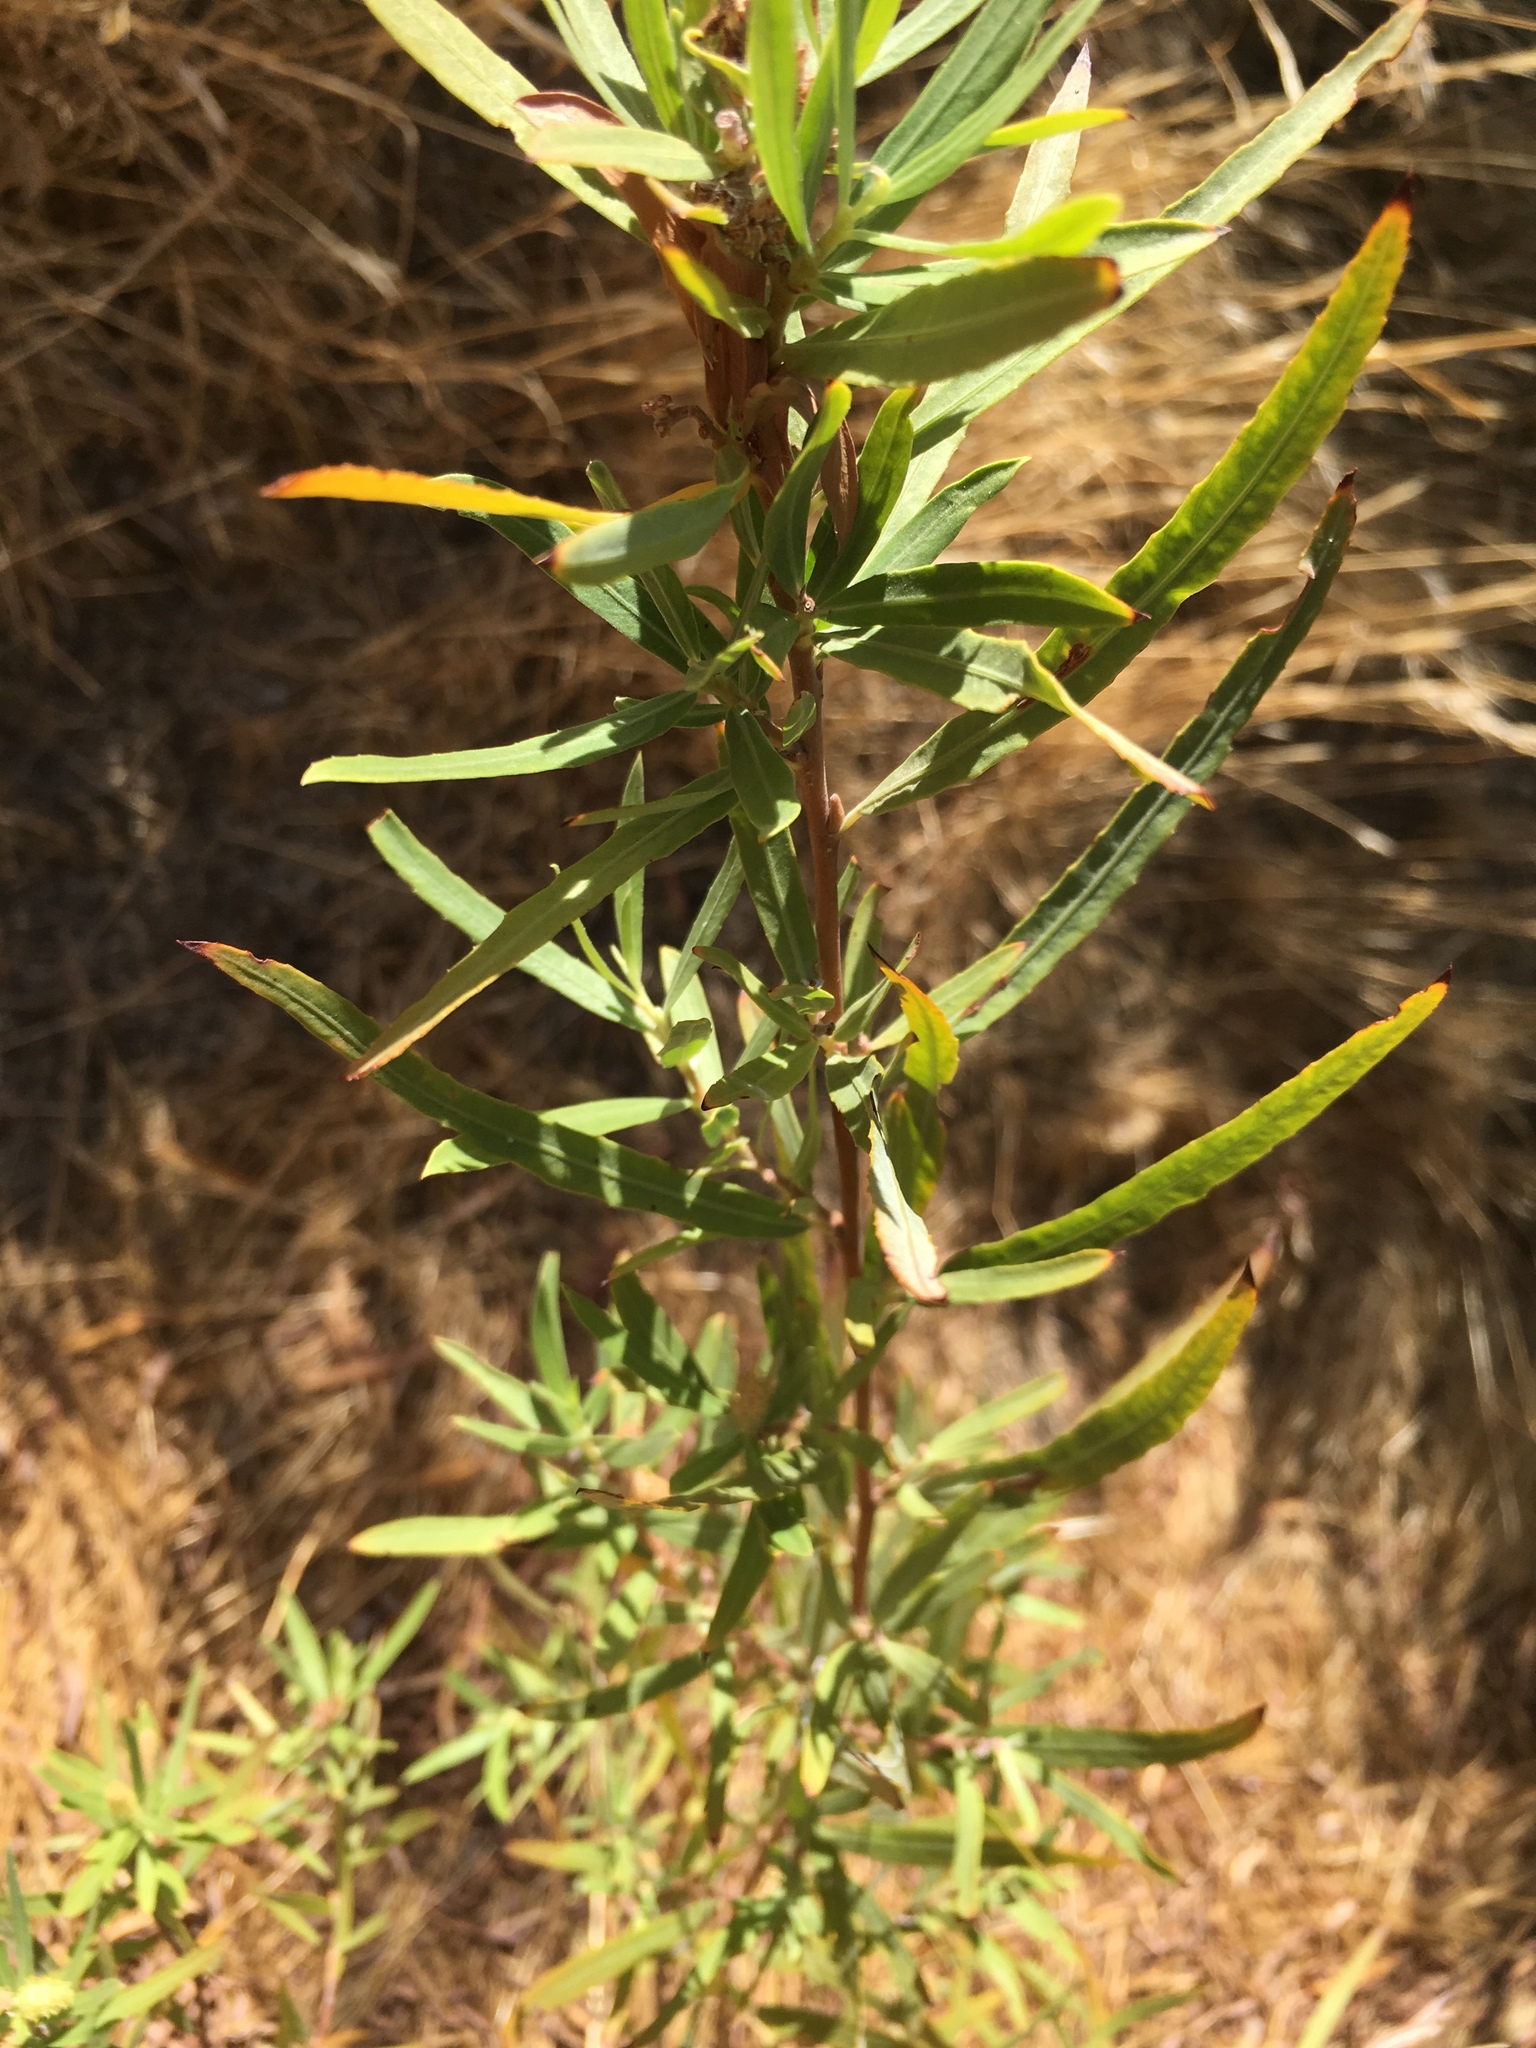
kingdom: Plantae
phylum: Tracheophyta
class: Magnoliopsida
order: Malpighiales
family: Salicaceae
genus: Salix
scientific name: Salix exigua
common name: Coyote willow
